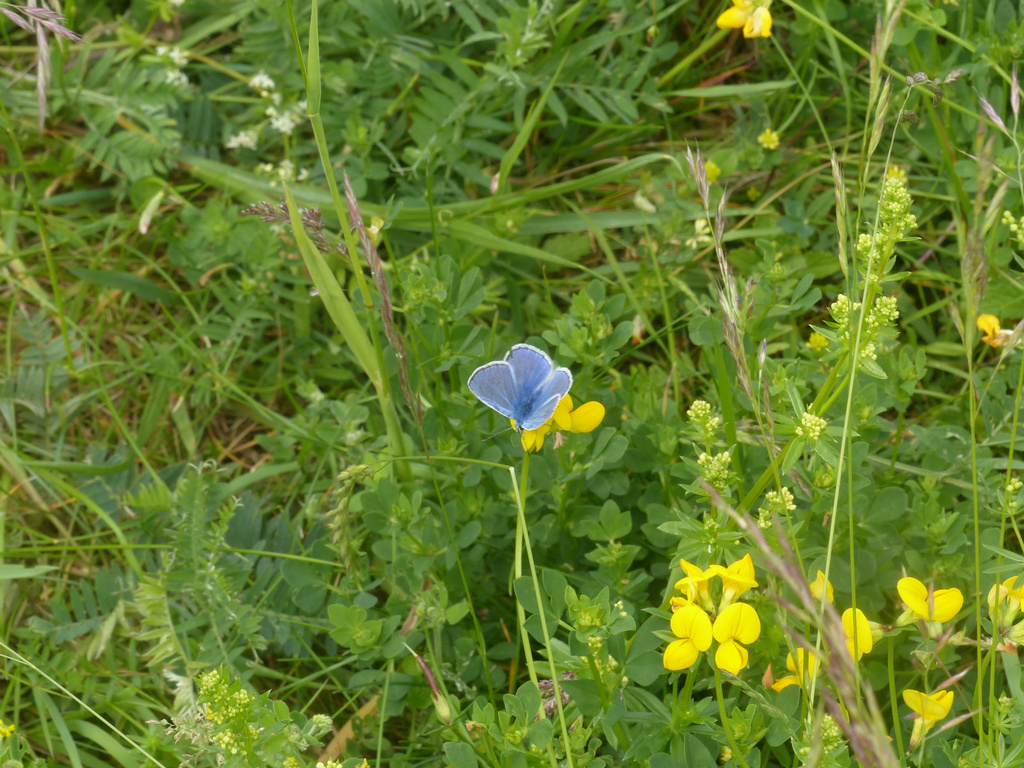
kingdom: Animalia
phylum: Arthropoda
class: Insecta
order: Lepidoptera
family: Lycaenidae
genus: Polyommatus
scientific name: Polyommatus icarus
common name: Common blue
